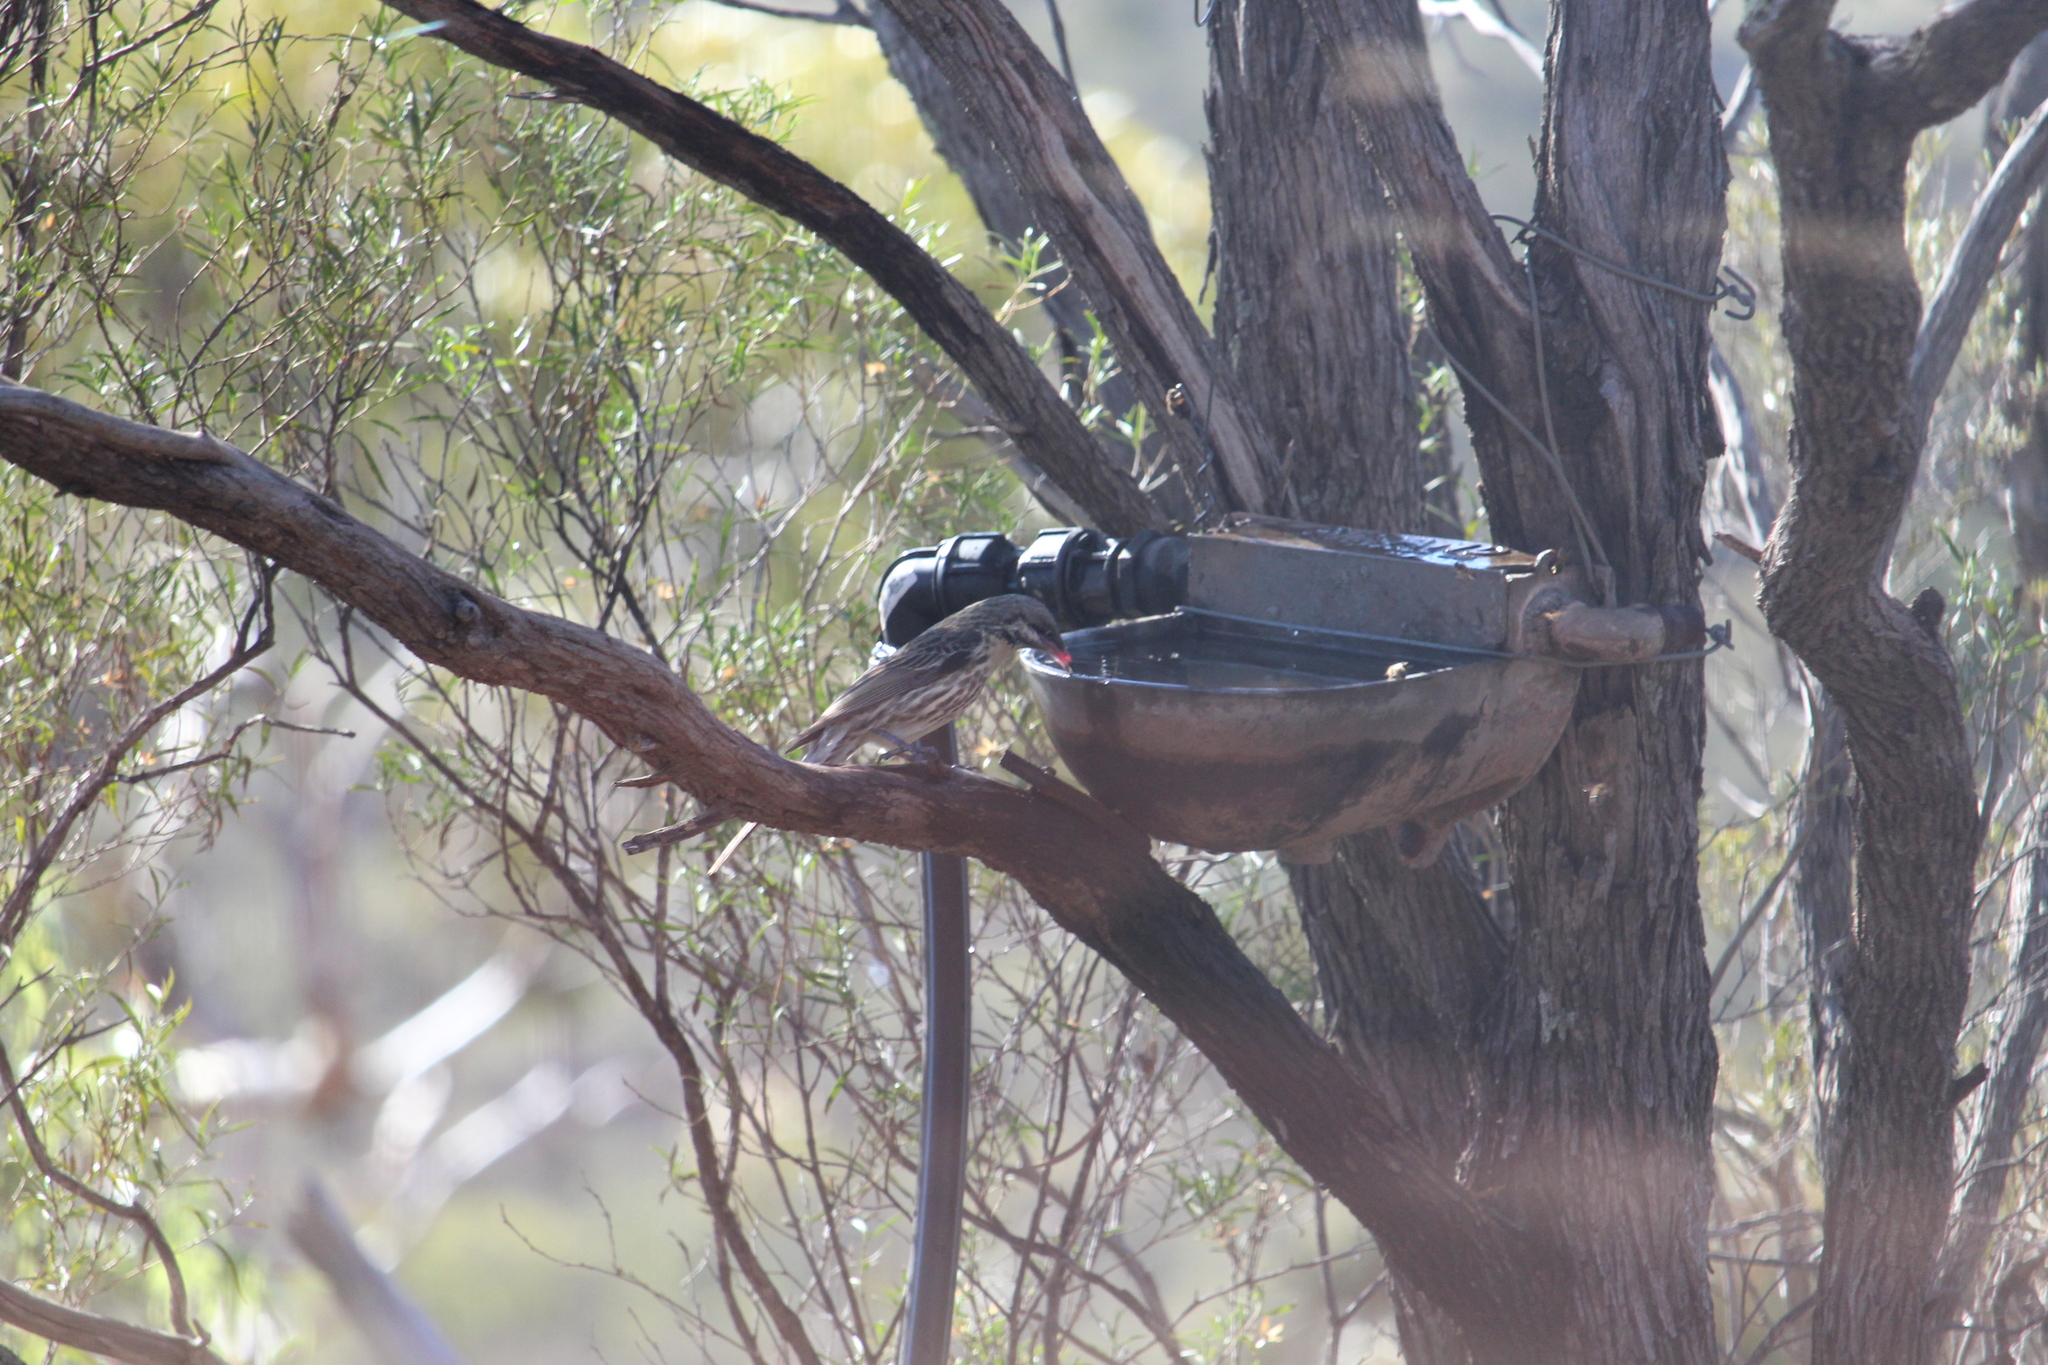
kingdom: Animalia
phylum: Chordata
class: Aves
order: Passeriformes
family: Meliphagidae
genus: Acanthagenys
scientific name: Acanthagenys rufogularis
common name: Spiny-cheeked honeyeater
